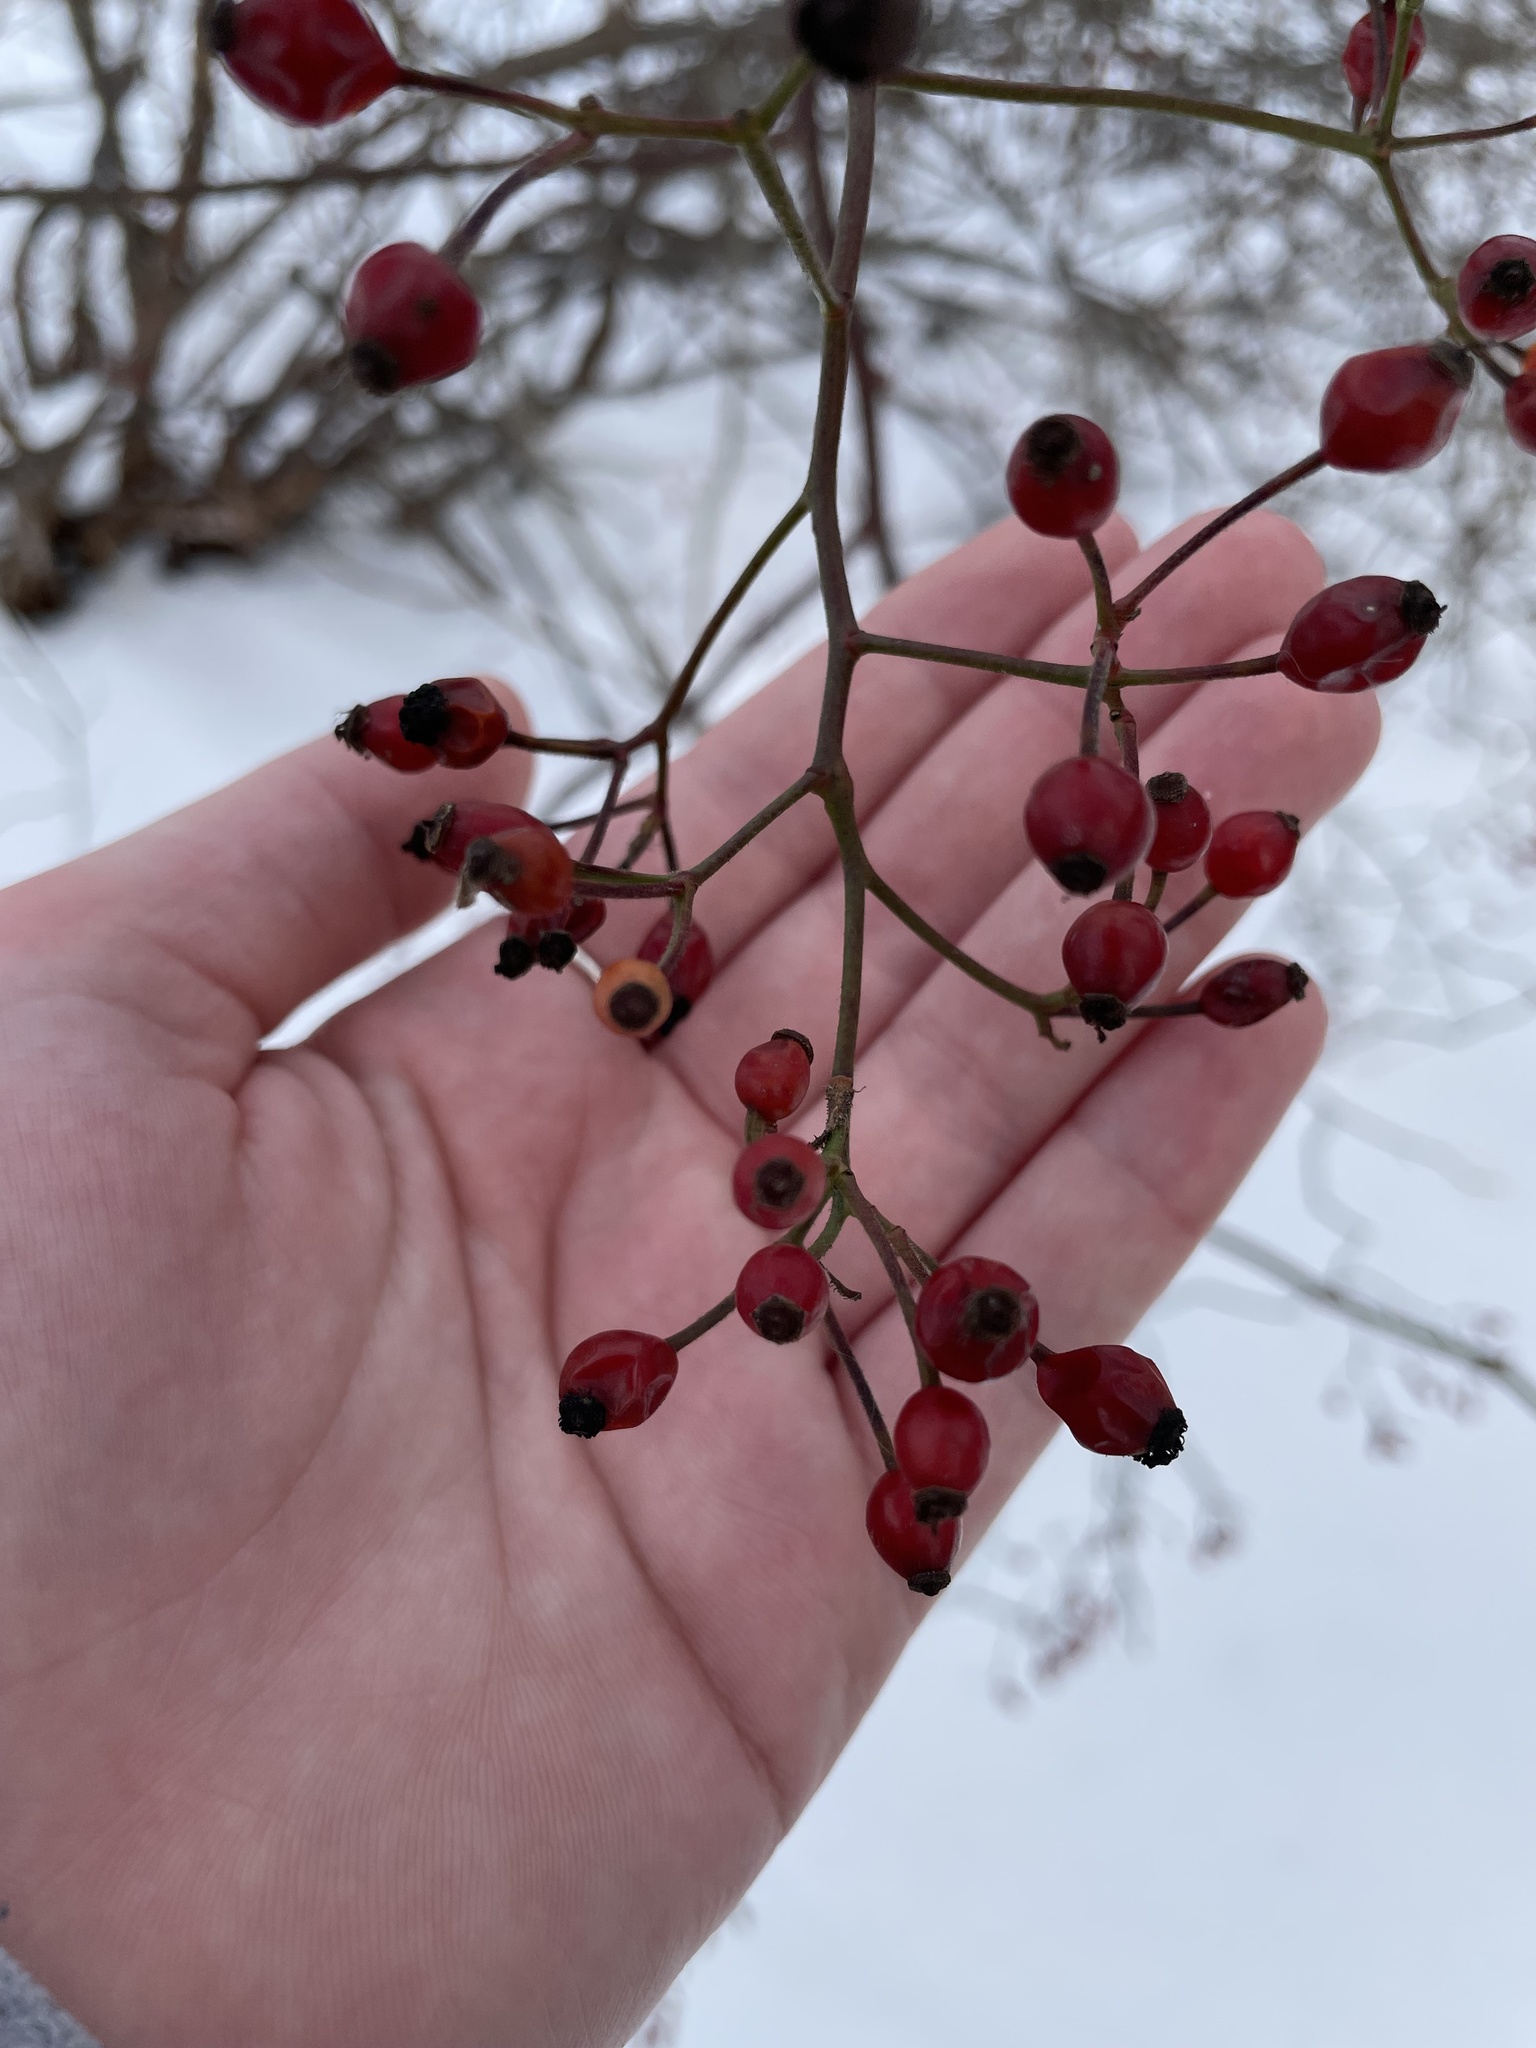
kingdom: Plantae
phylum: Tracheophyta
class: Magnoliopsida
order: Rosales
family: Rosaceae
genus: Rosa
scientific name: Rosa multiflora
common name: Multiflora rose
